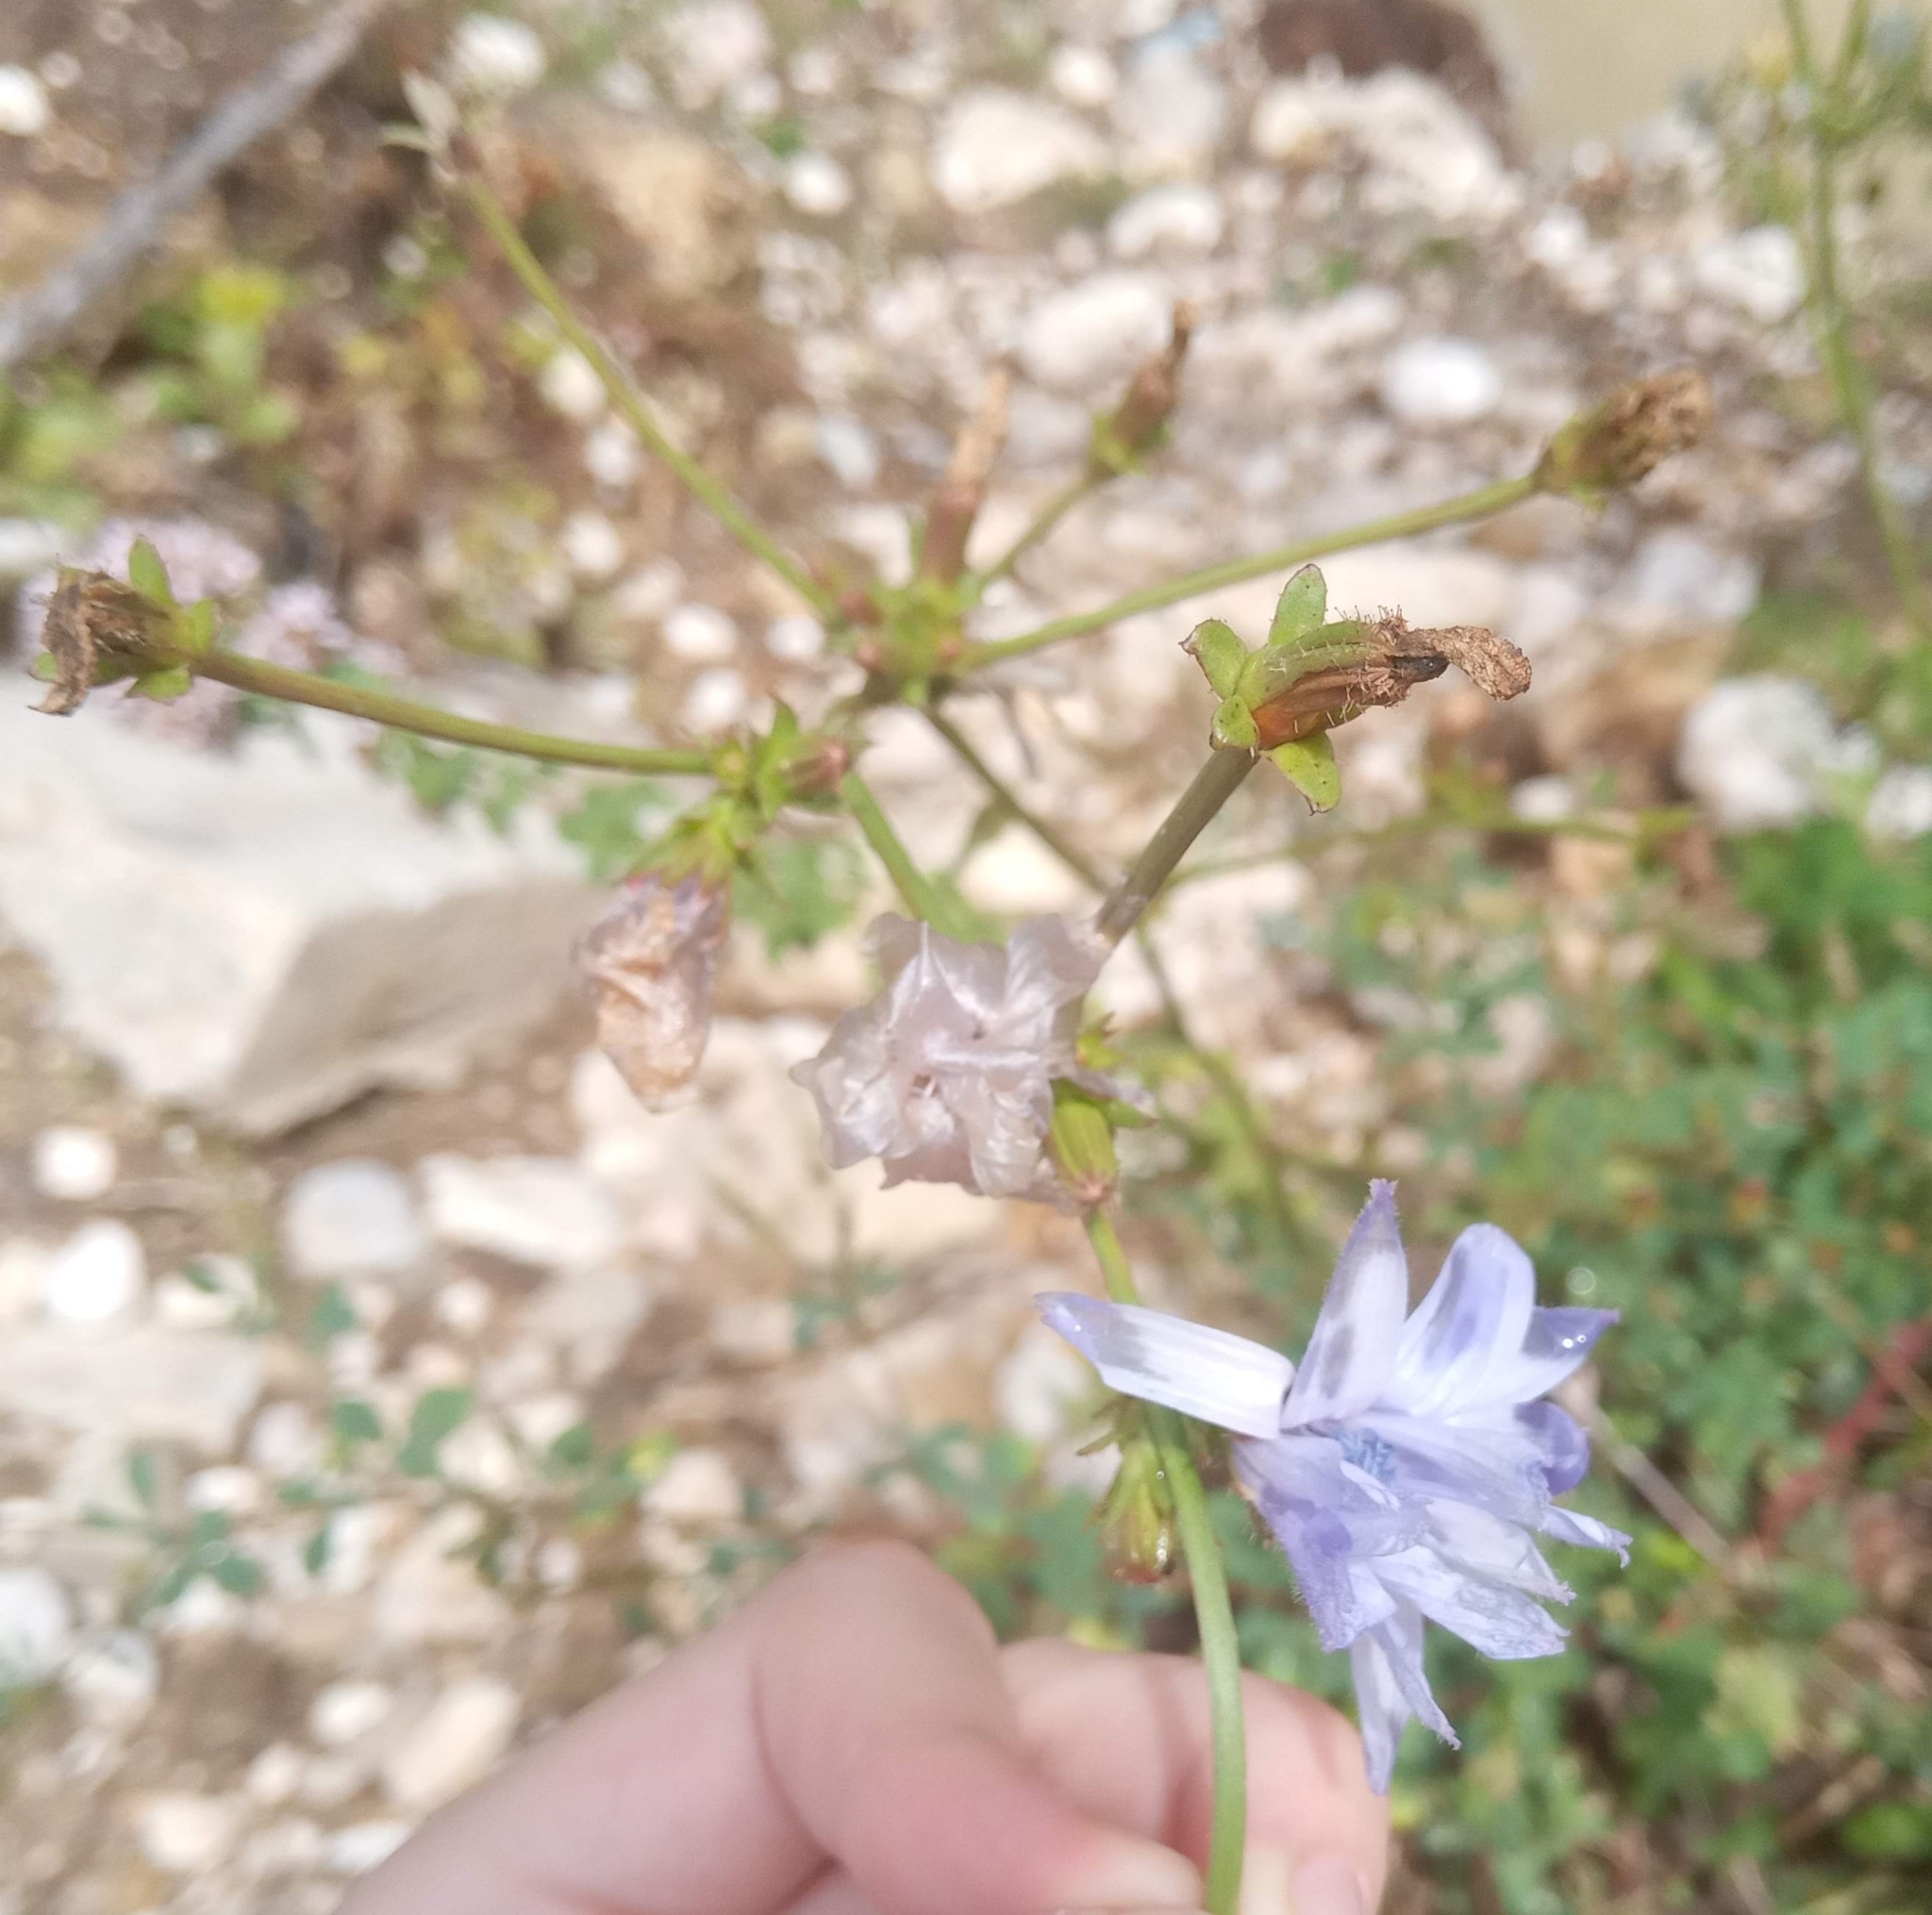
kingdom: Plantae
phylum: Tracheophyta
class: Magnoliopsida
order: Asterales
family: Asteraceae
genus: Cichorium
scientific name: Cichorium intybus
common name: Chicory
